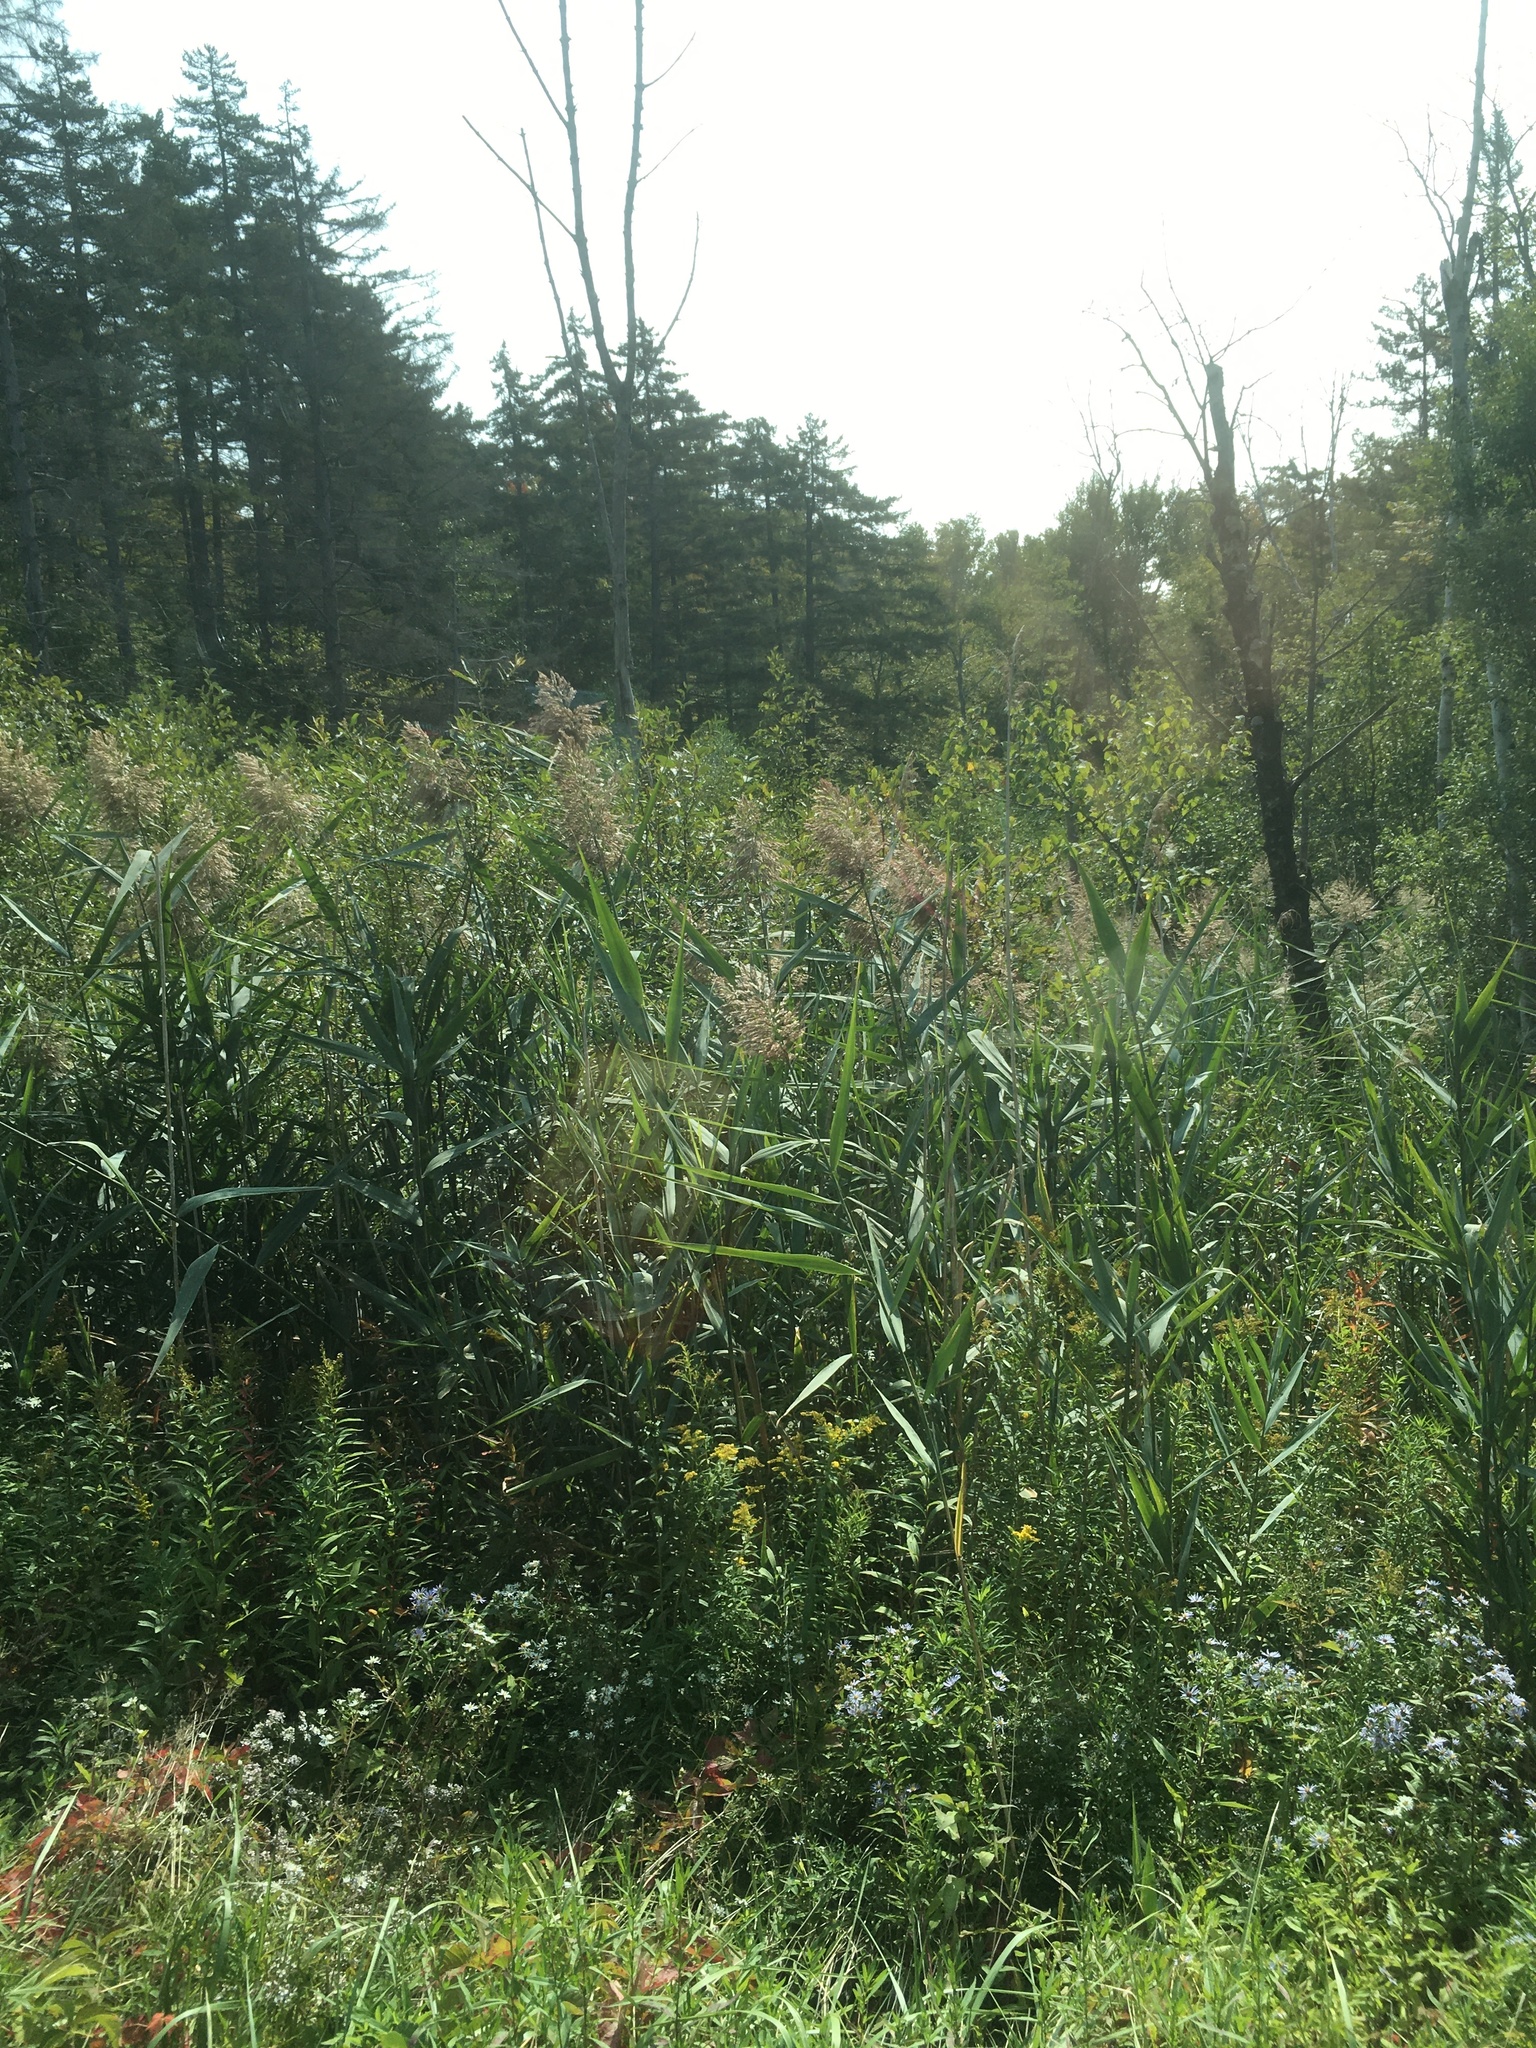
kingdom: Plantae
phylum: Tracheophyta
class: Liliopsida
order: Poales
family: Poaceae
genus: Phragmites
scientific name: Phragmites australis
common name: Common reed
